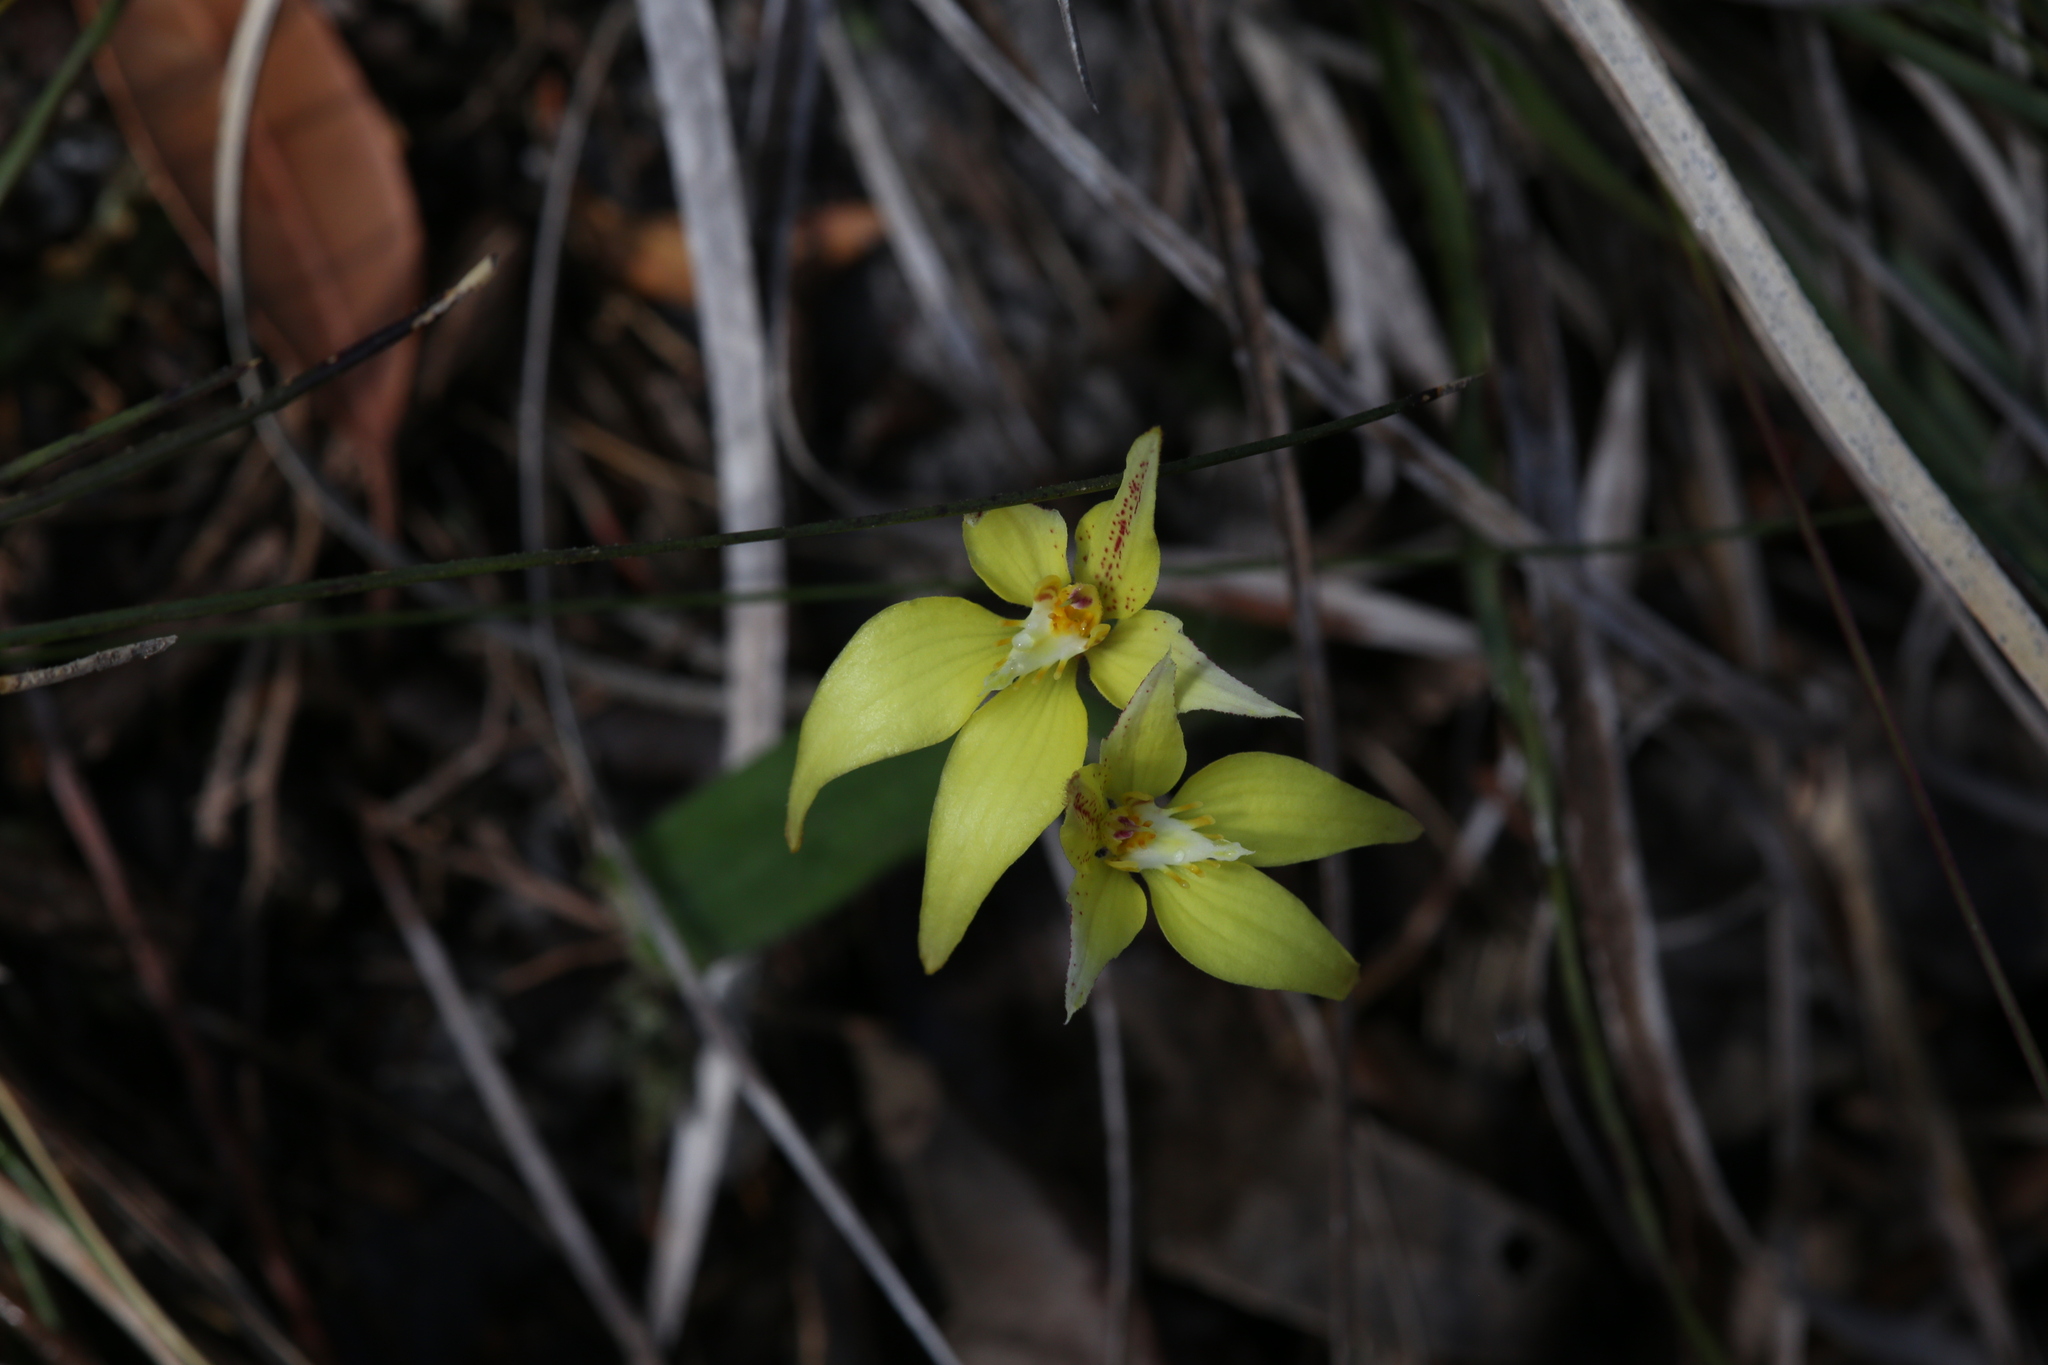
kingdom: Plantae
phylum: Tracheophyta
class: Liliopsida
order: Asparagales
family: Orchidaceae
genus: Caladenia
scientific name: Caladenia flava
